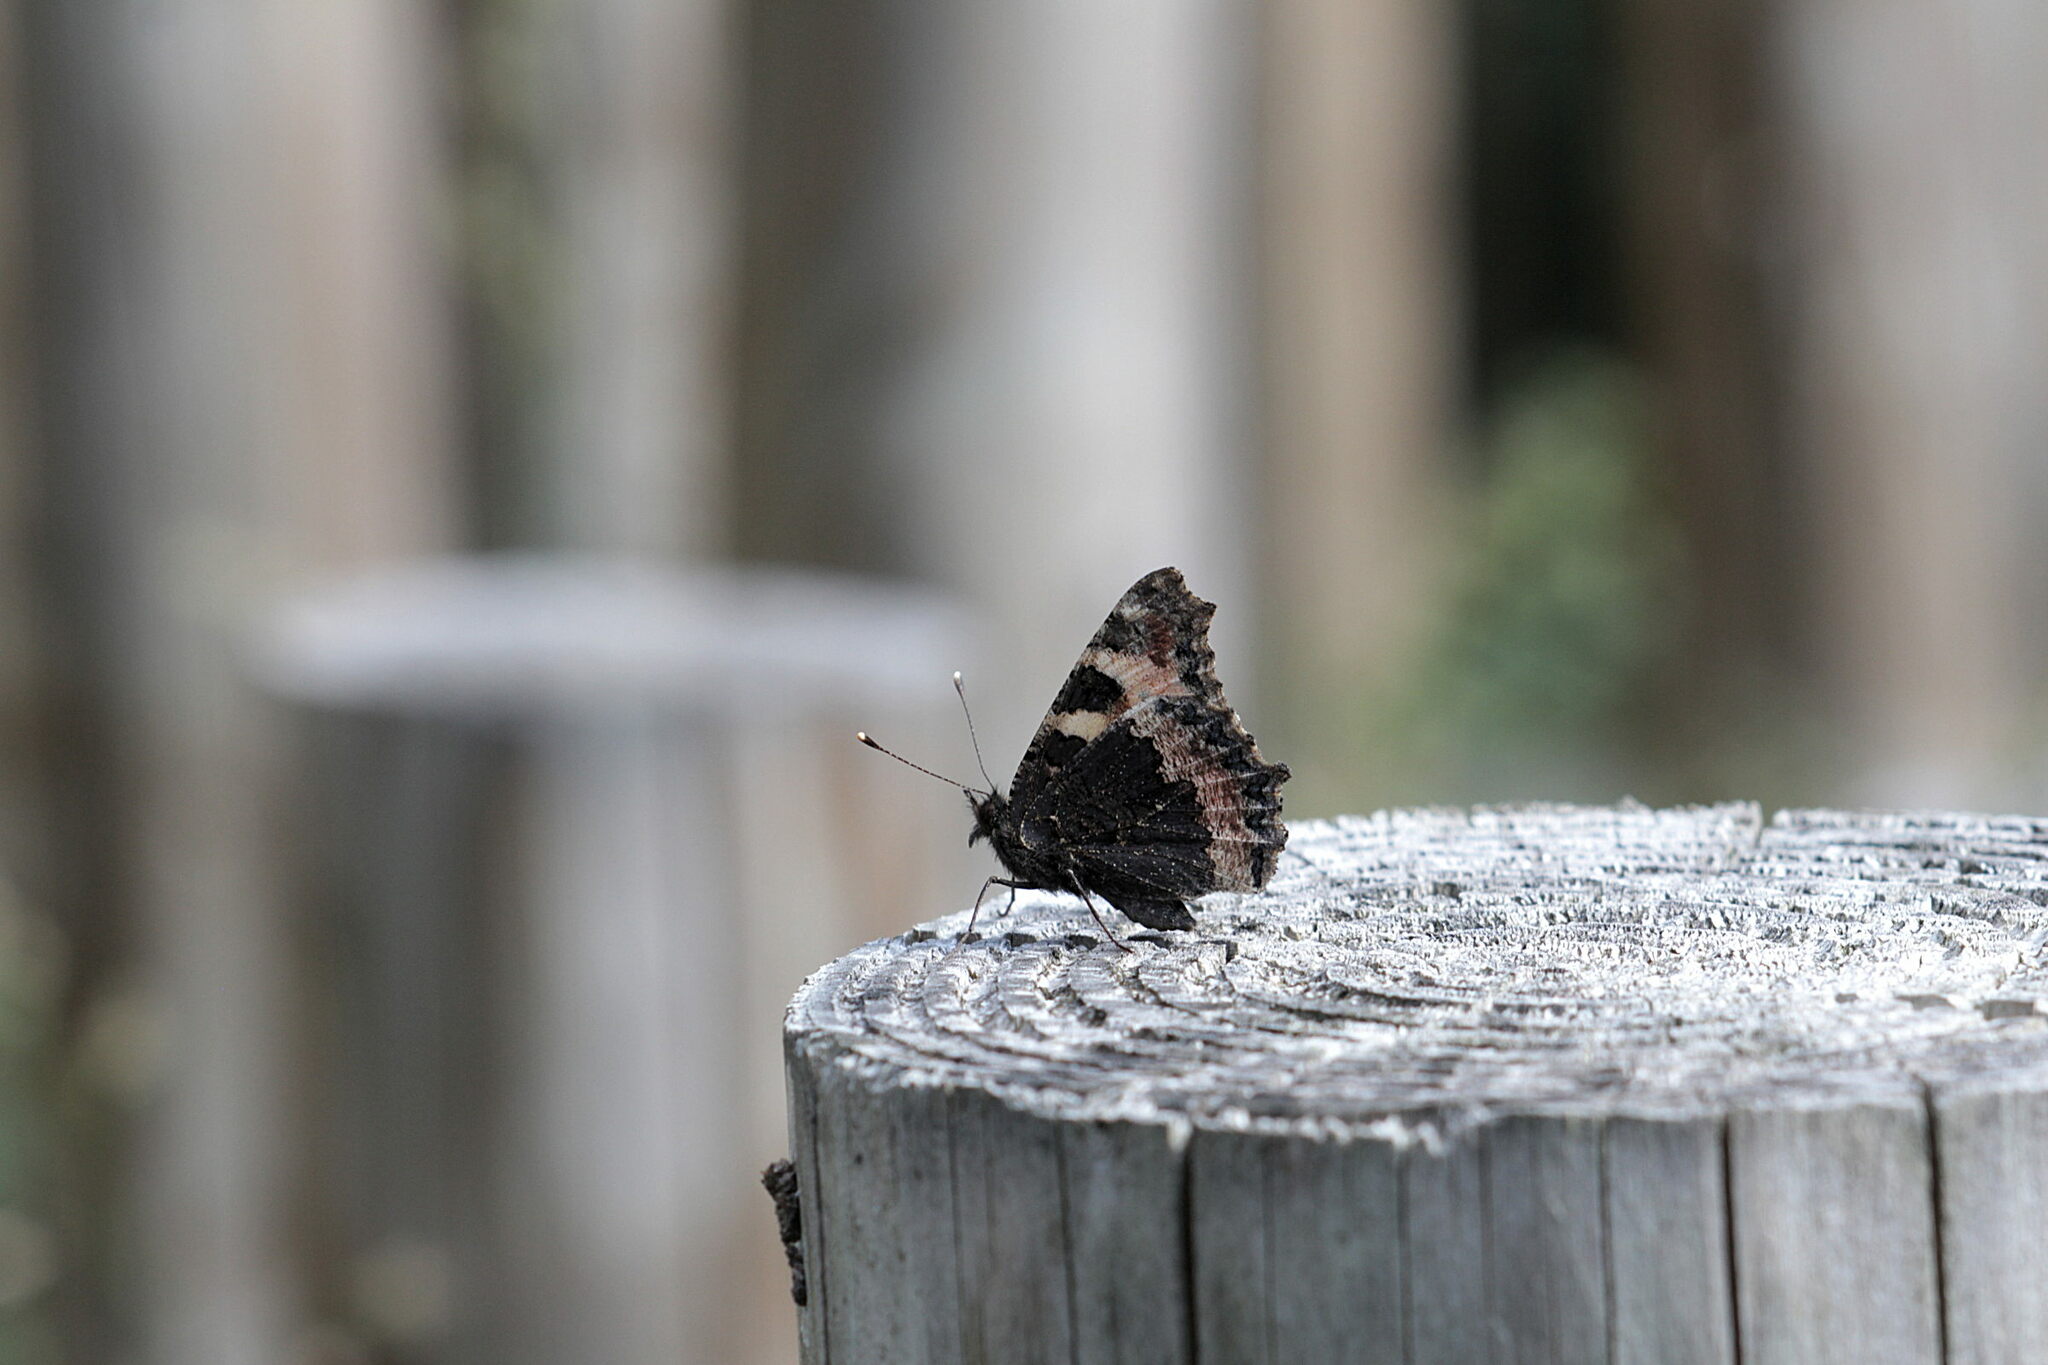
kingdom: Animalia
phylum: Arthropoda
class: Insecta
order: Lepidoptera
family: Nymphalidae
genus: Aglais
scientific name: Aglais urticae
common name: Small tortoiseshell
